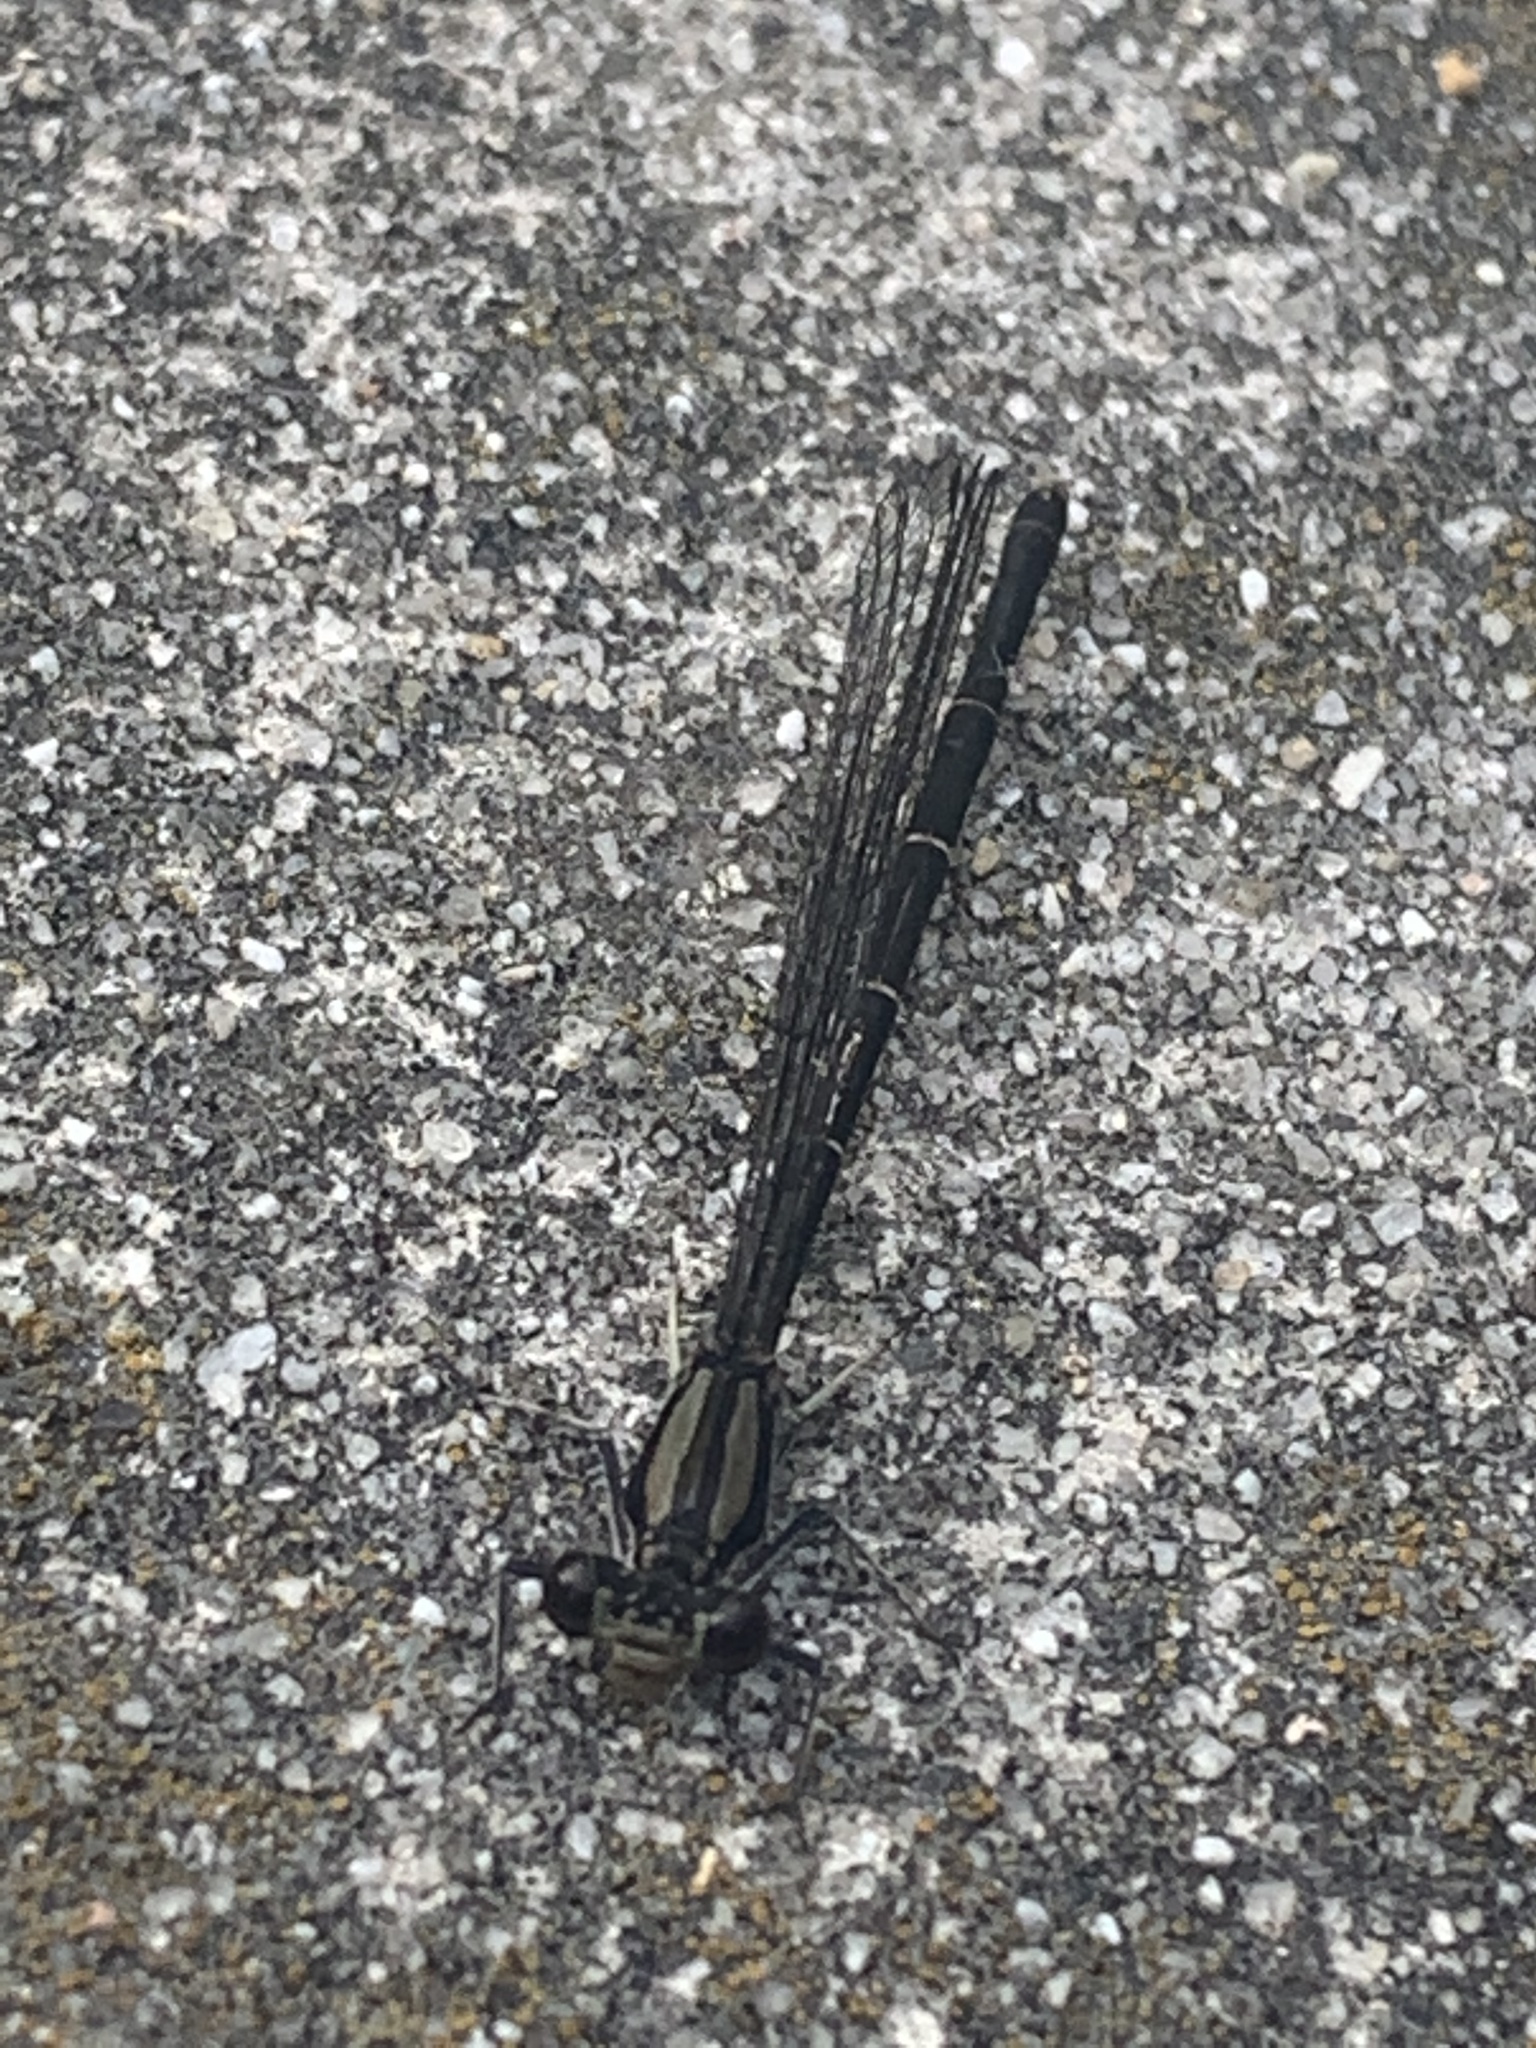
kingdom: Animalia
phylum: Arthropoda
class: Insecta
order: Odonata
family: Coenagrionidae
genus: Argia
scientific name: Argia tibialis
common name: Blue-tipped dancer
